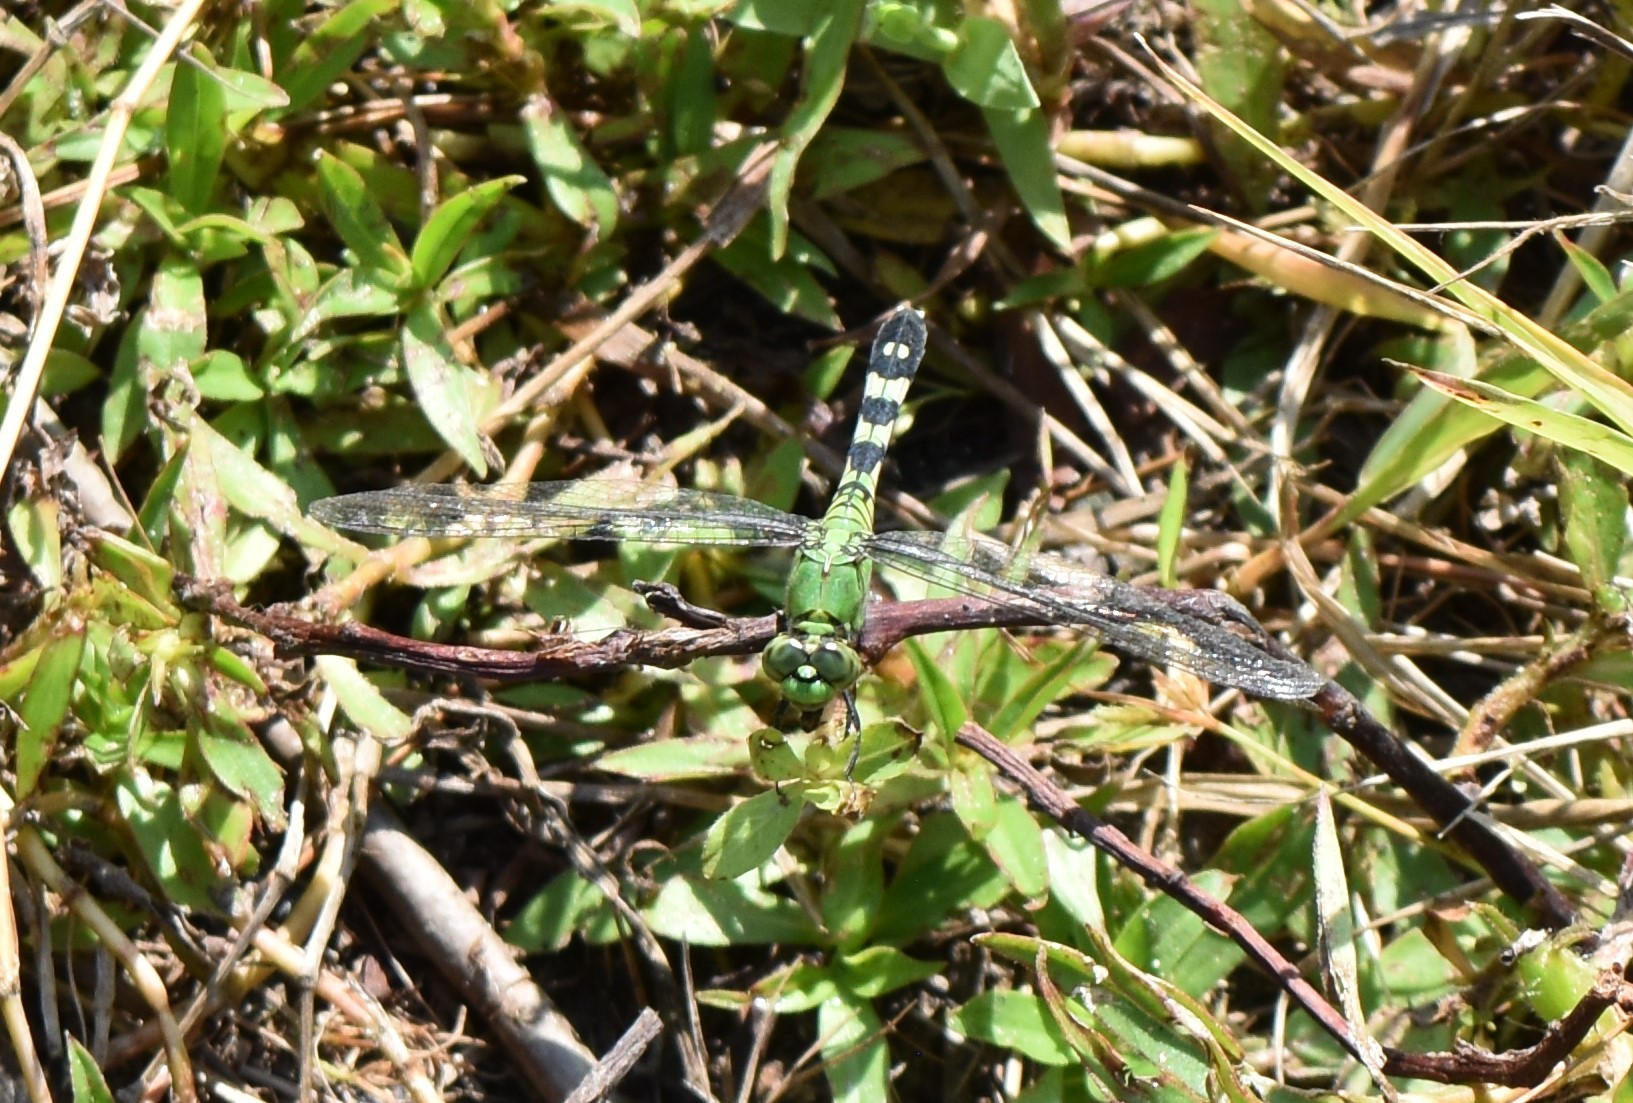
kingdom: Animalia
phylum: Arthropoda
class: Insecta
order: Odonata
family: Libellulidae
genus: Erythemis
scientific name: Erythemis simplicicollis
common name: Eastern pondhawk
